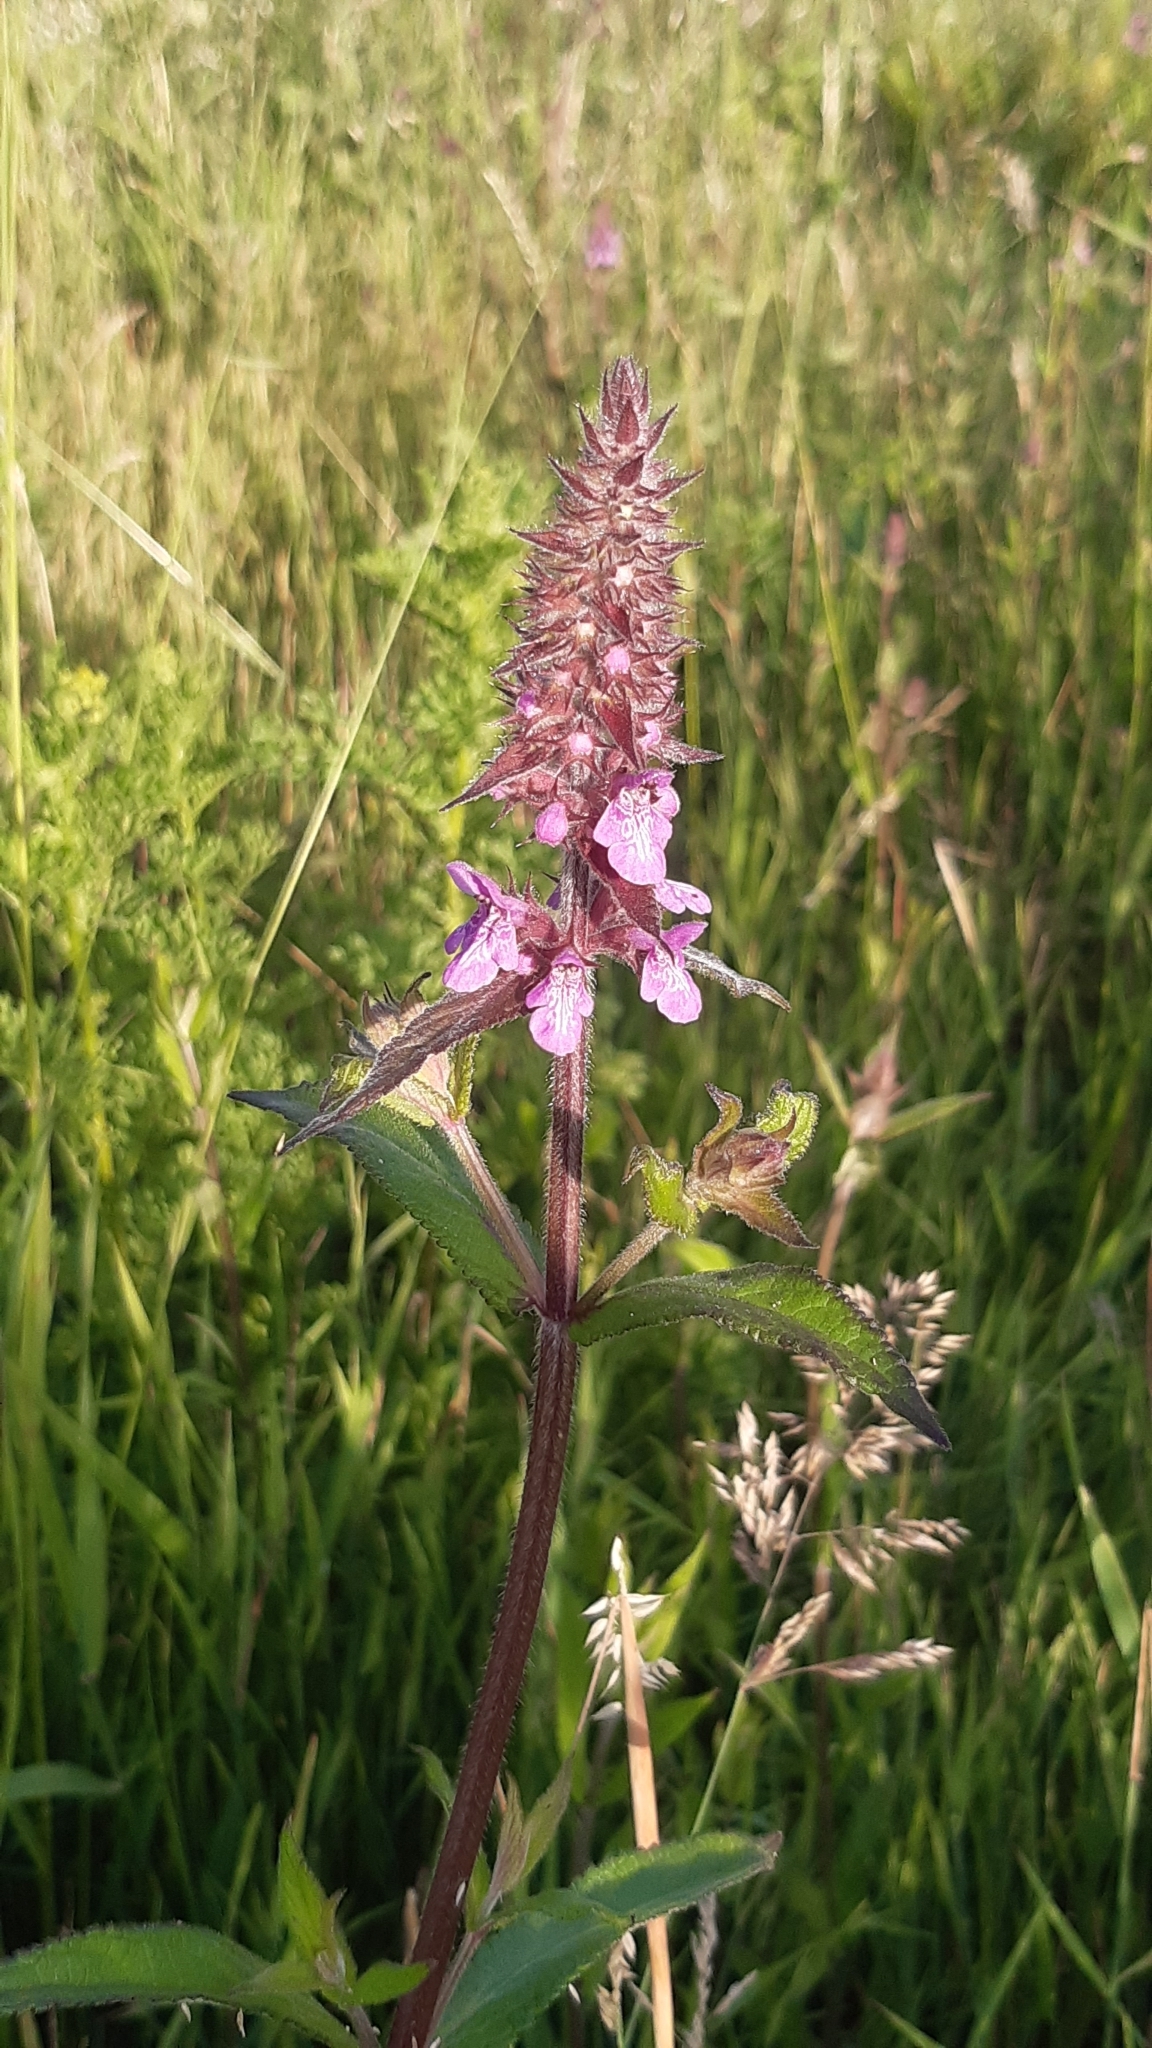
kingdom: Plantae
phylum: Tracheophyta
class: Magnoliopsida
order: Lamiales
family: Lamiaceae
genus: Stachys
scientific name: Stachys palustris
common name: Marsh woundwort
